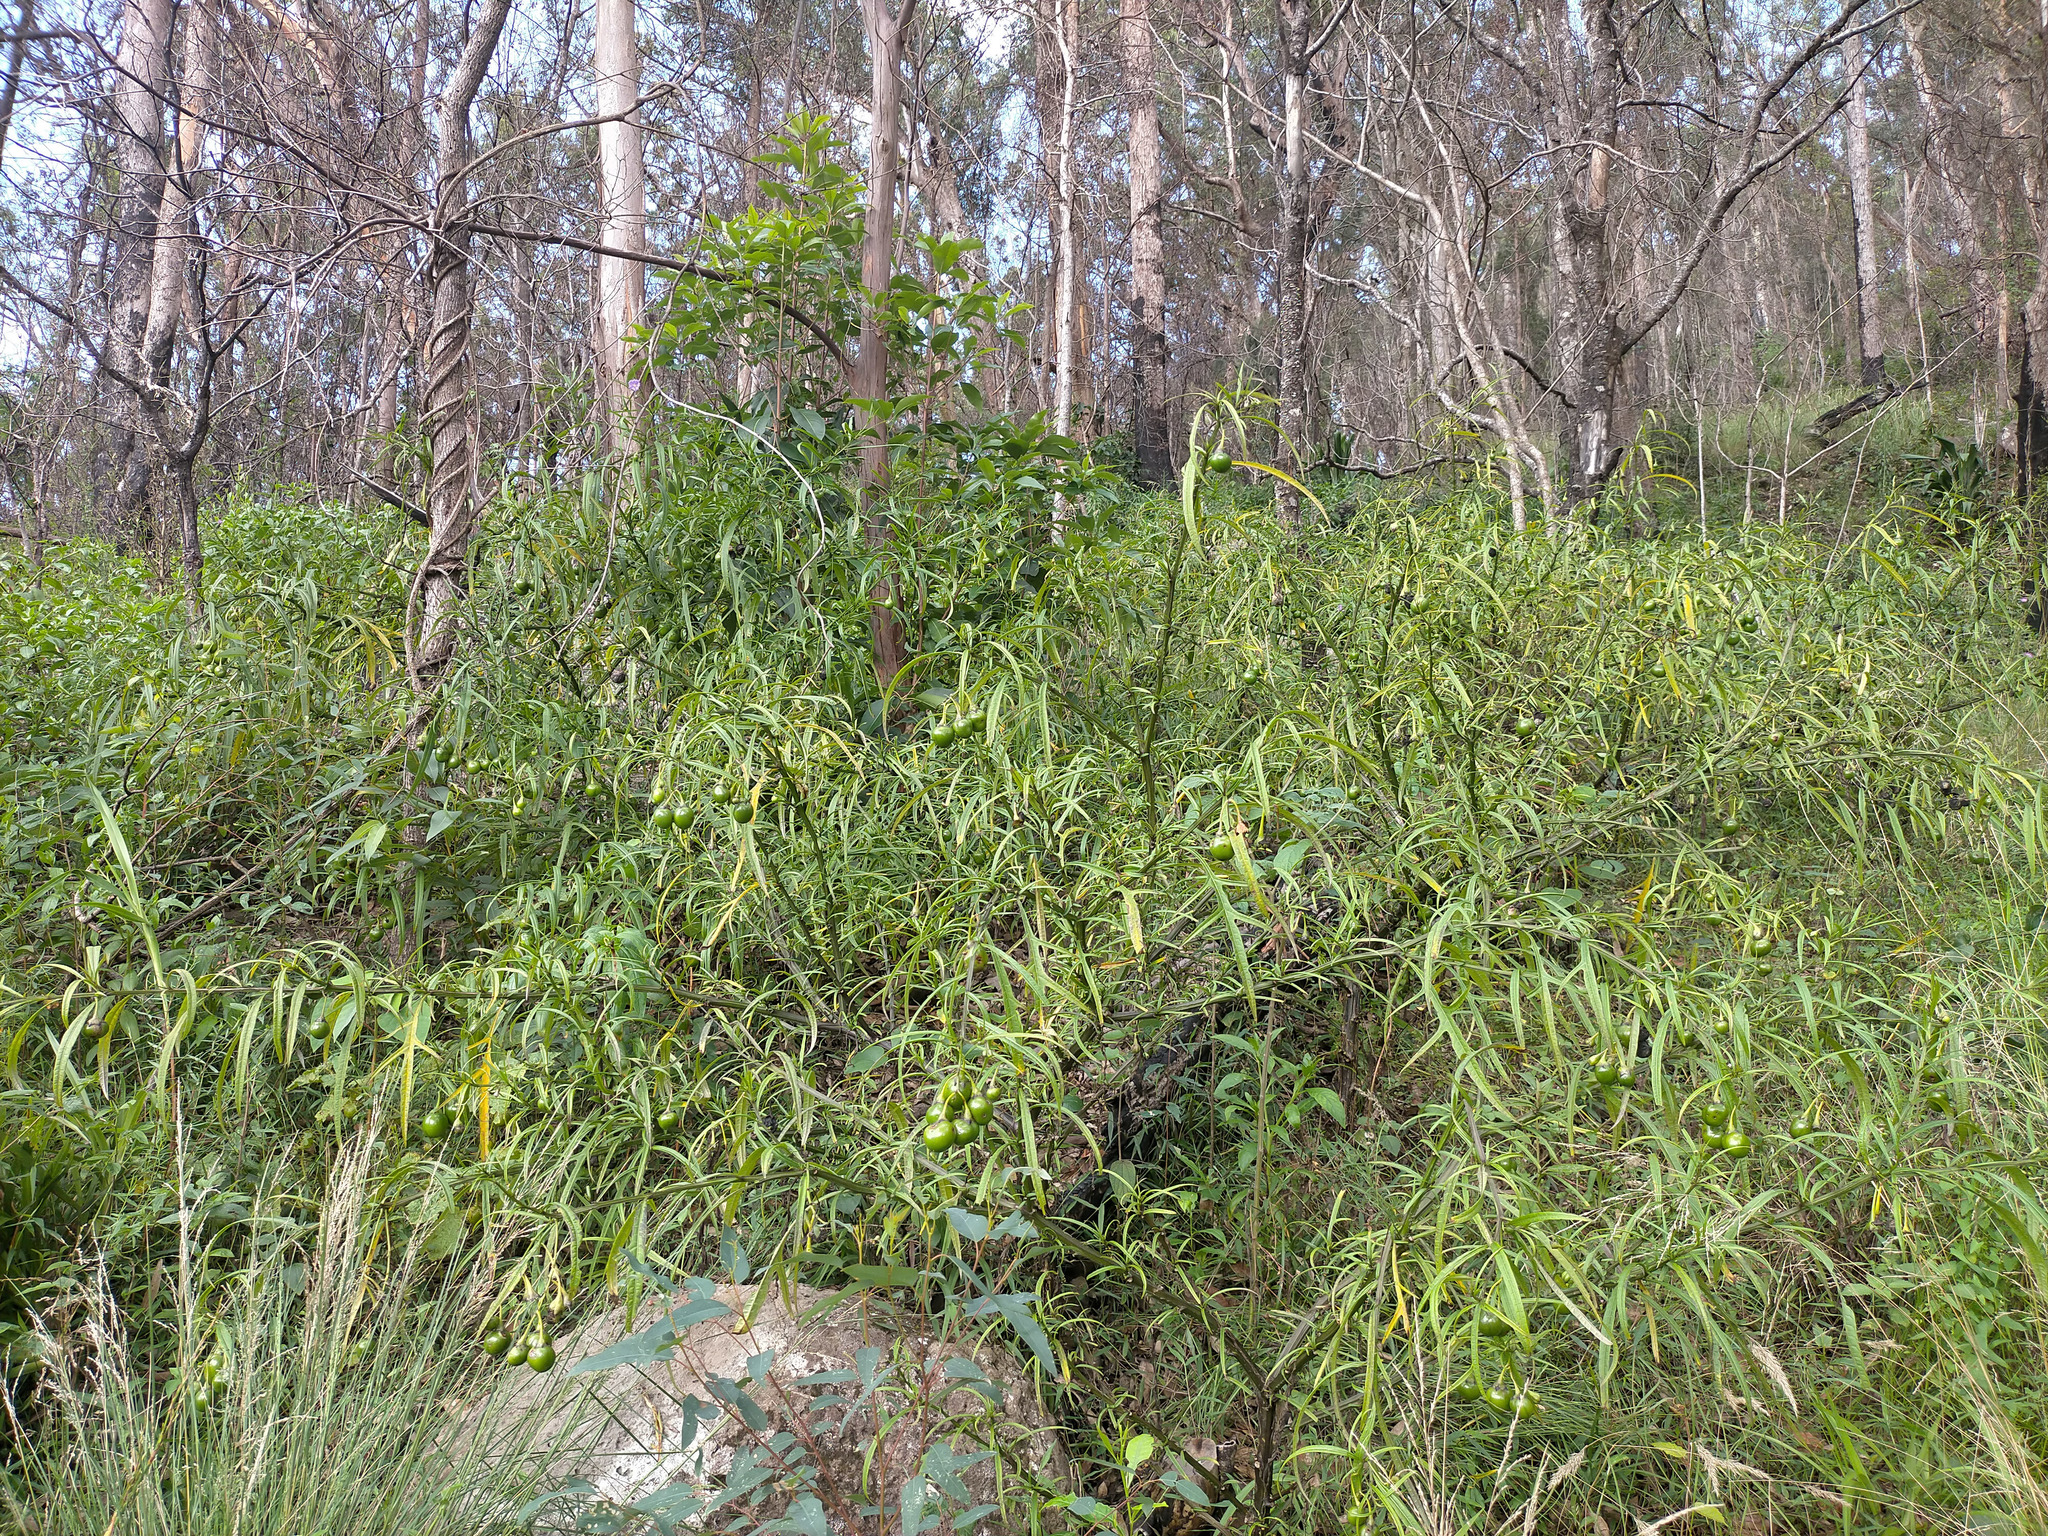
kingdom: Plantae
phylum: Tracheophyta
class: Magnoliopsida
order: Solanales
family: Solanaceae
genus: Solanum
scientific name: Solanum vescum
